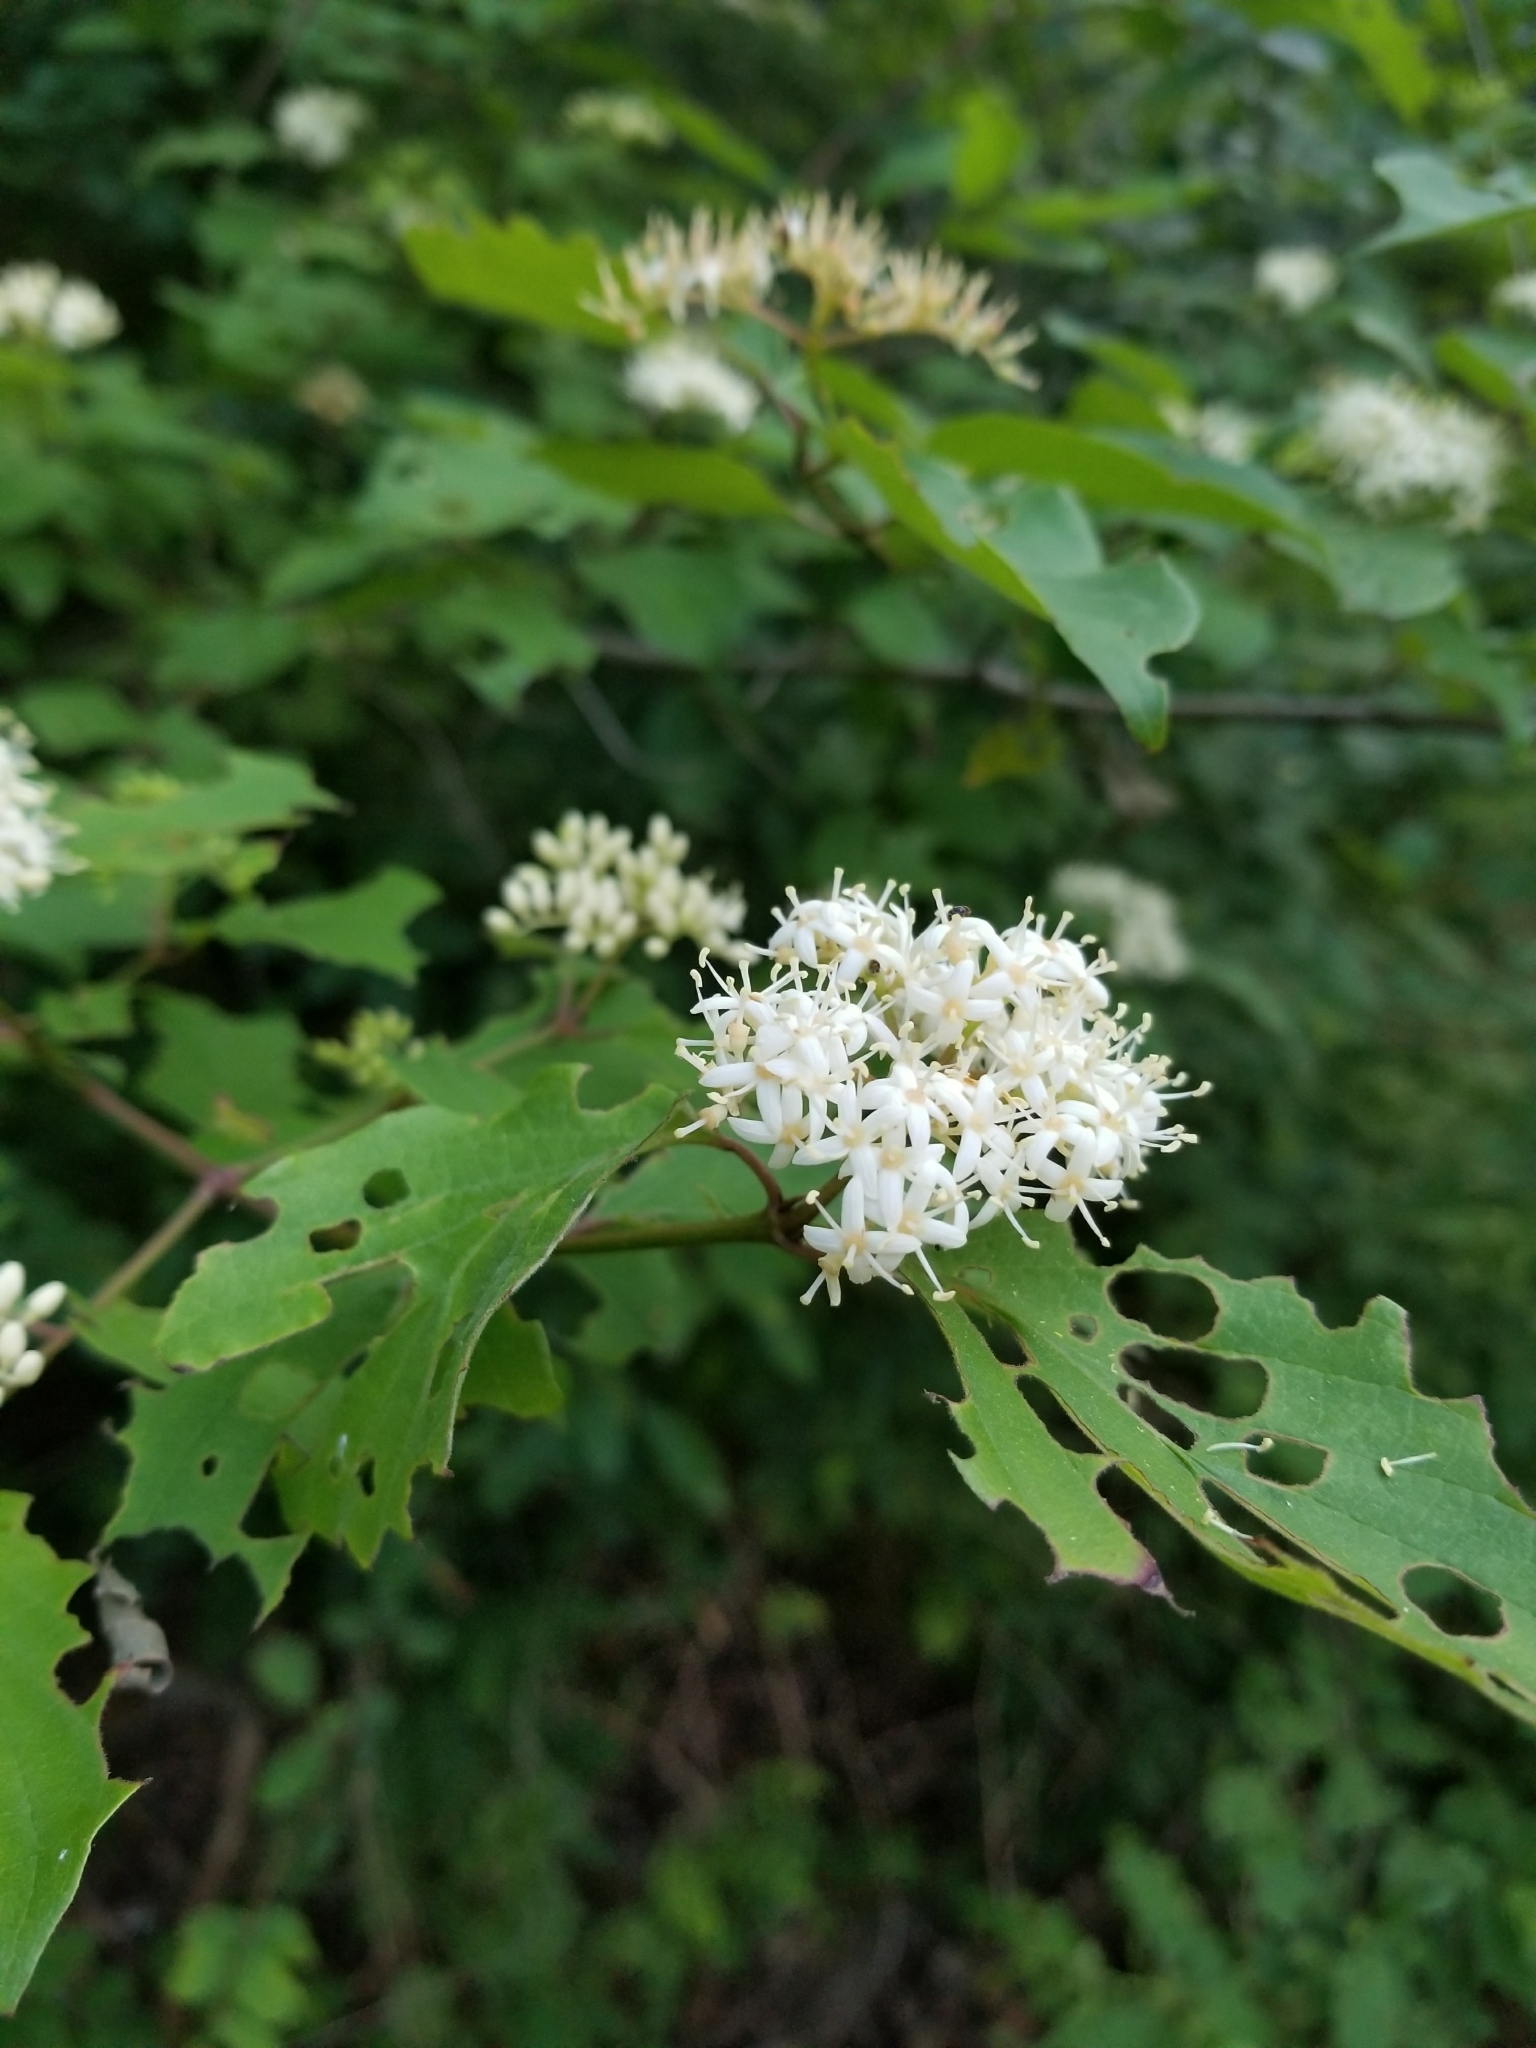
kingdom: Plantae
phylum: Tracheophyta
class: Magnoliopsida
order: Cornales
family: Cornaceae
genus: Cornus
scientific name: Cornus drummondii
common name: Rough-leaf dogwood
